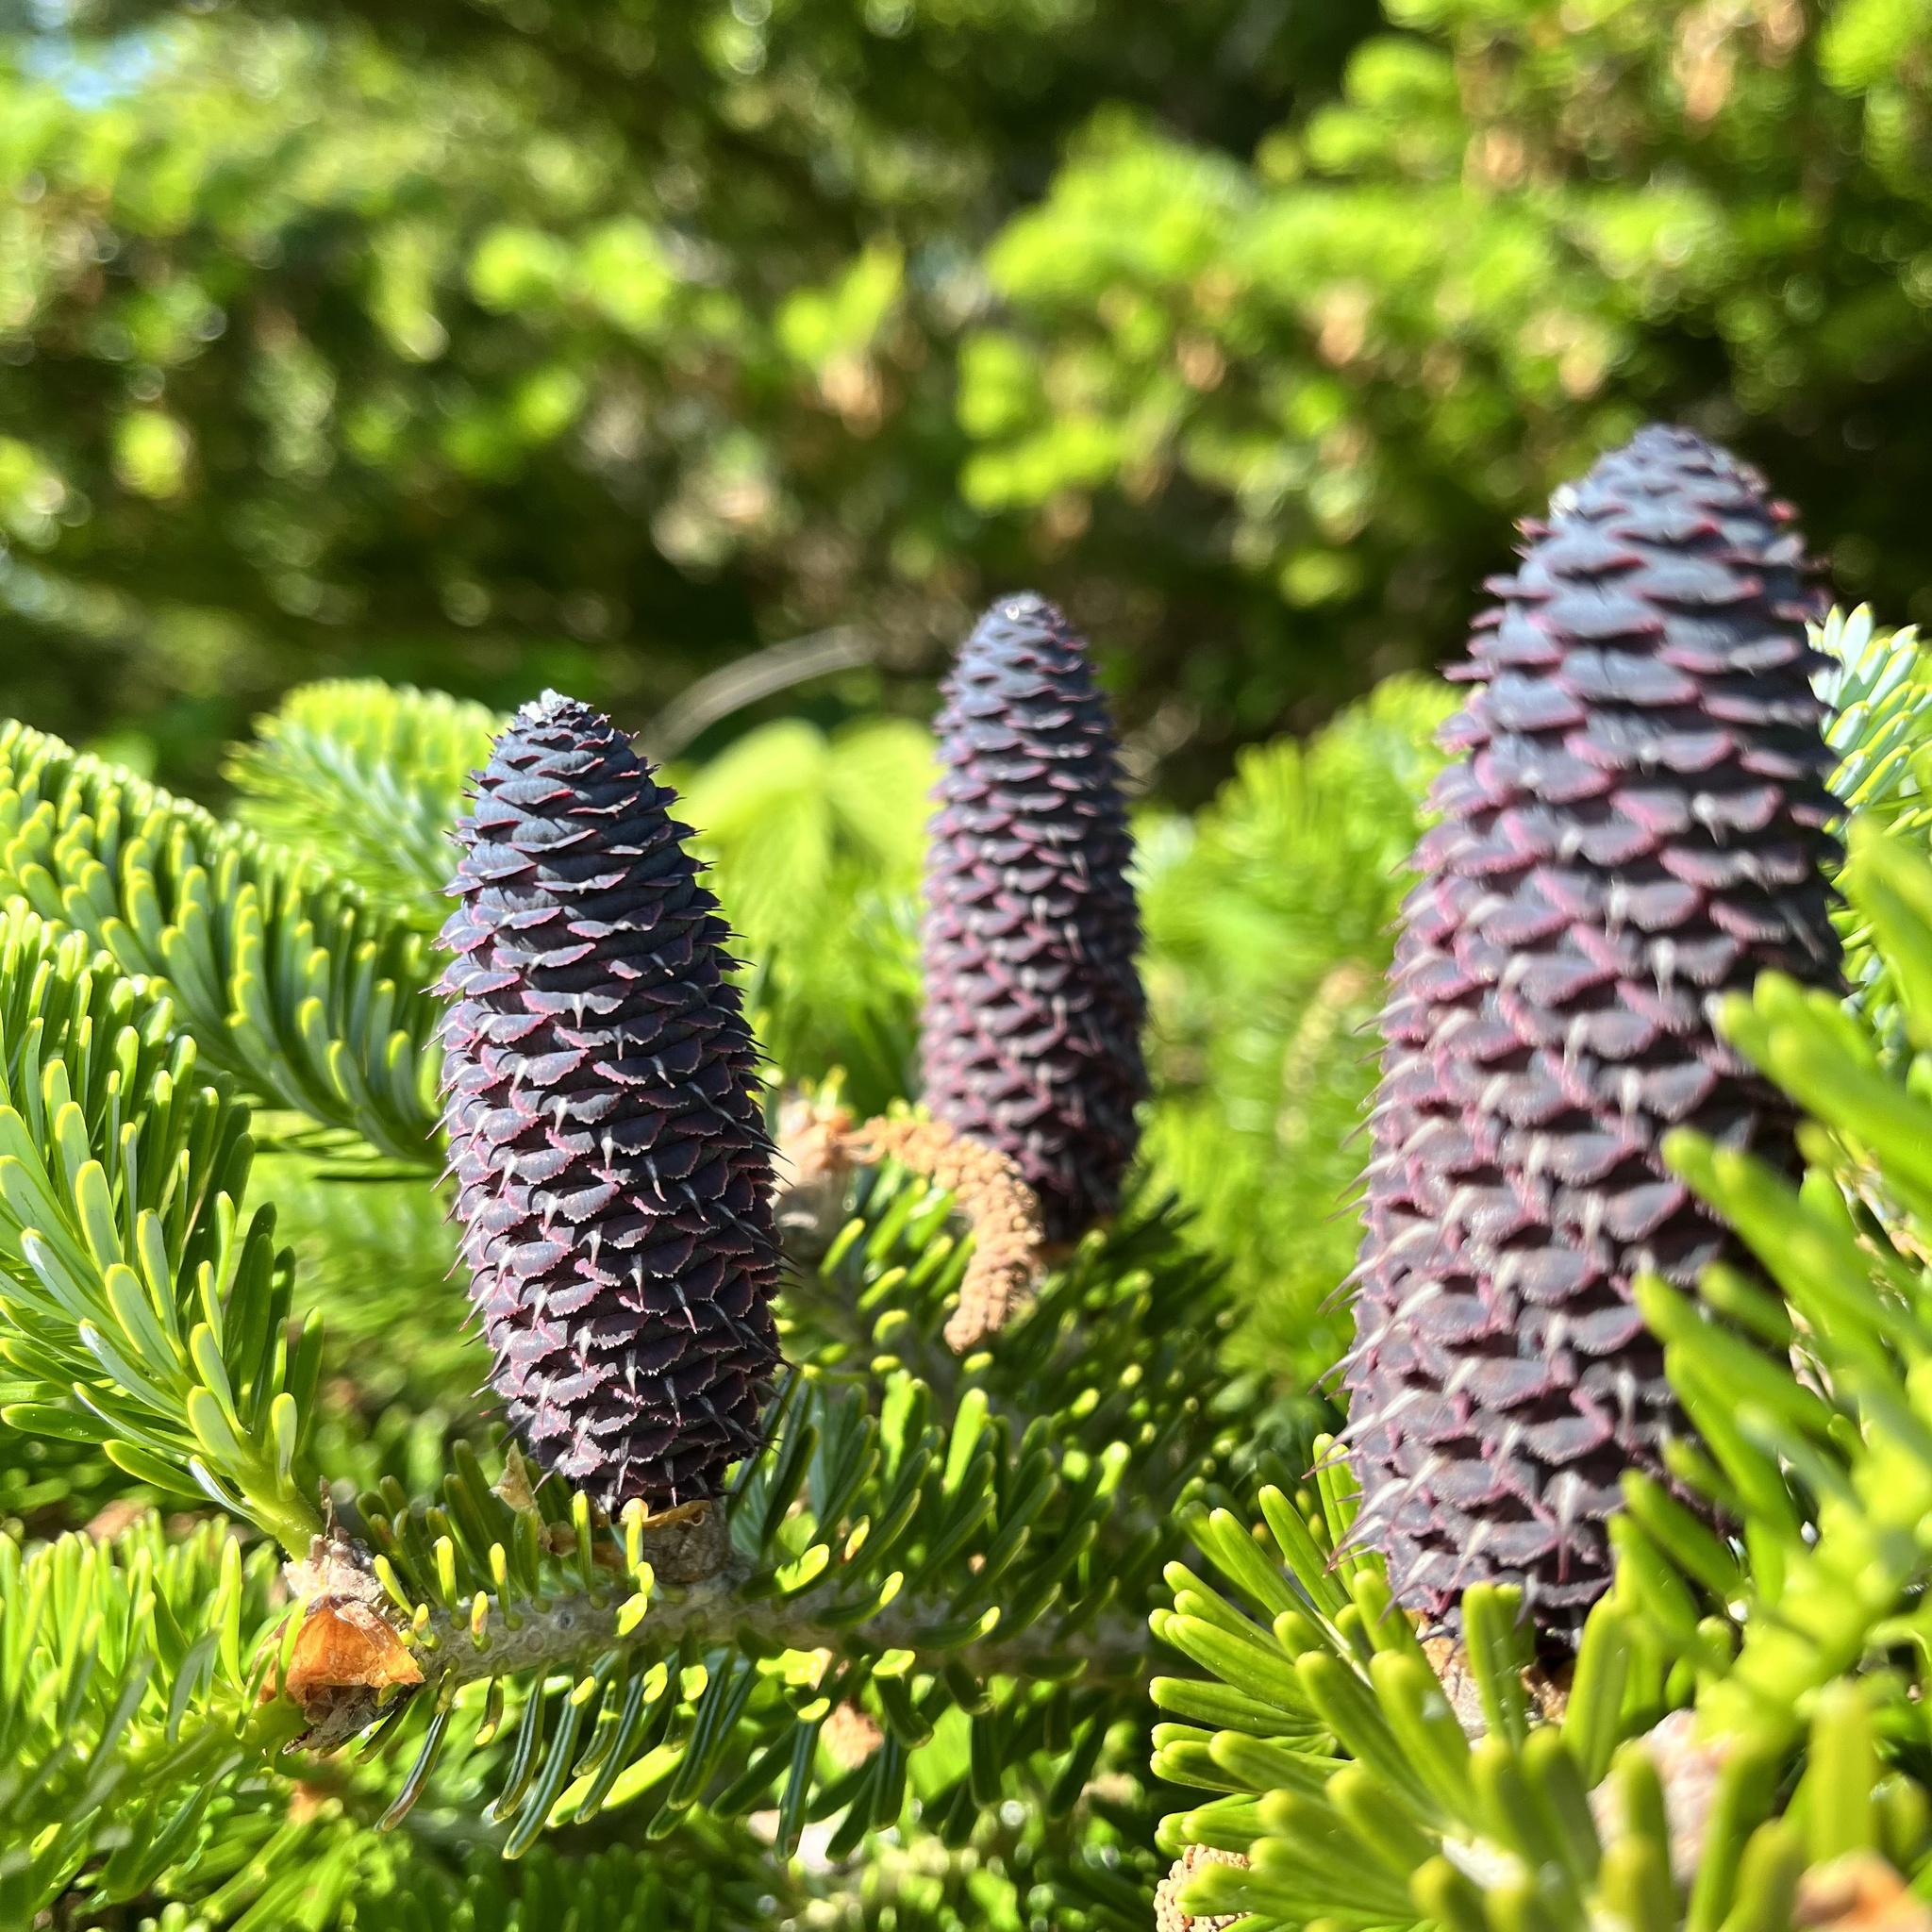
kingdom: Plantae
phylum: Tracheophyta
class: Pinopsida
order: Pinales
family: Pinaceae
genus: Abies
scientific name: Abies balsamea
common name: Balsam fir
